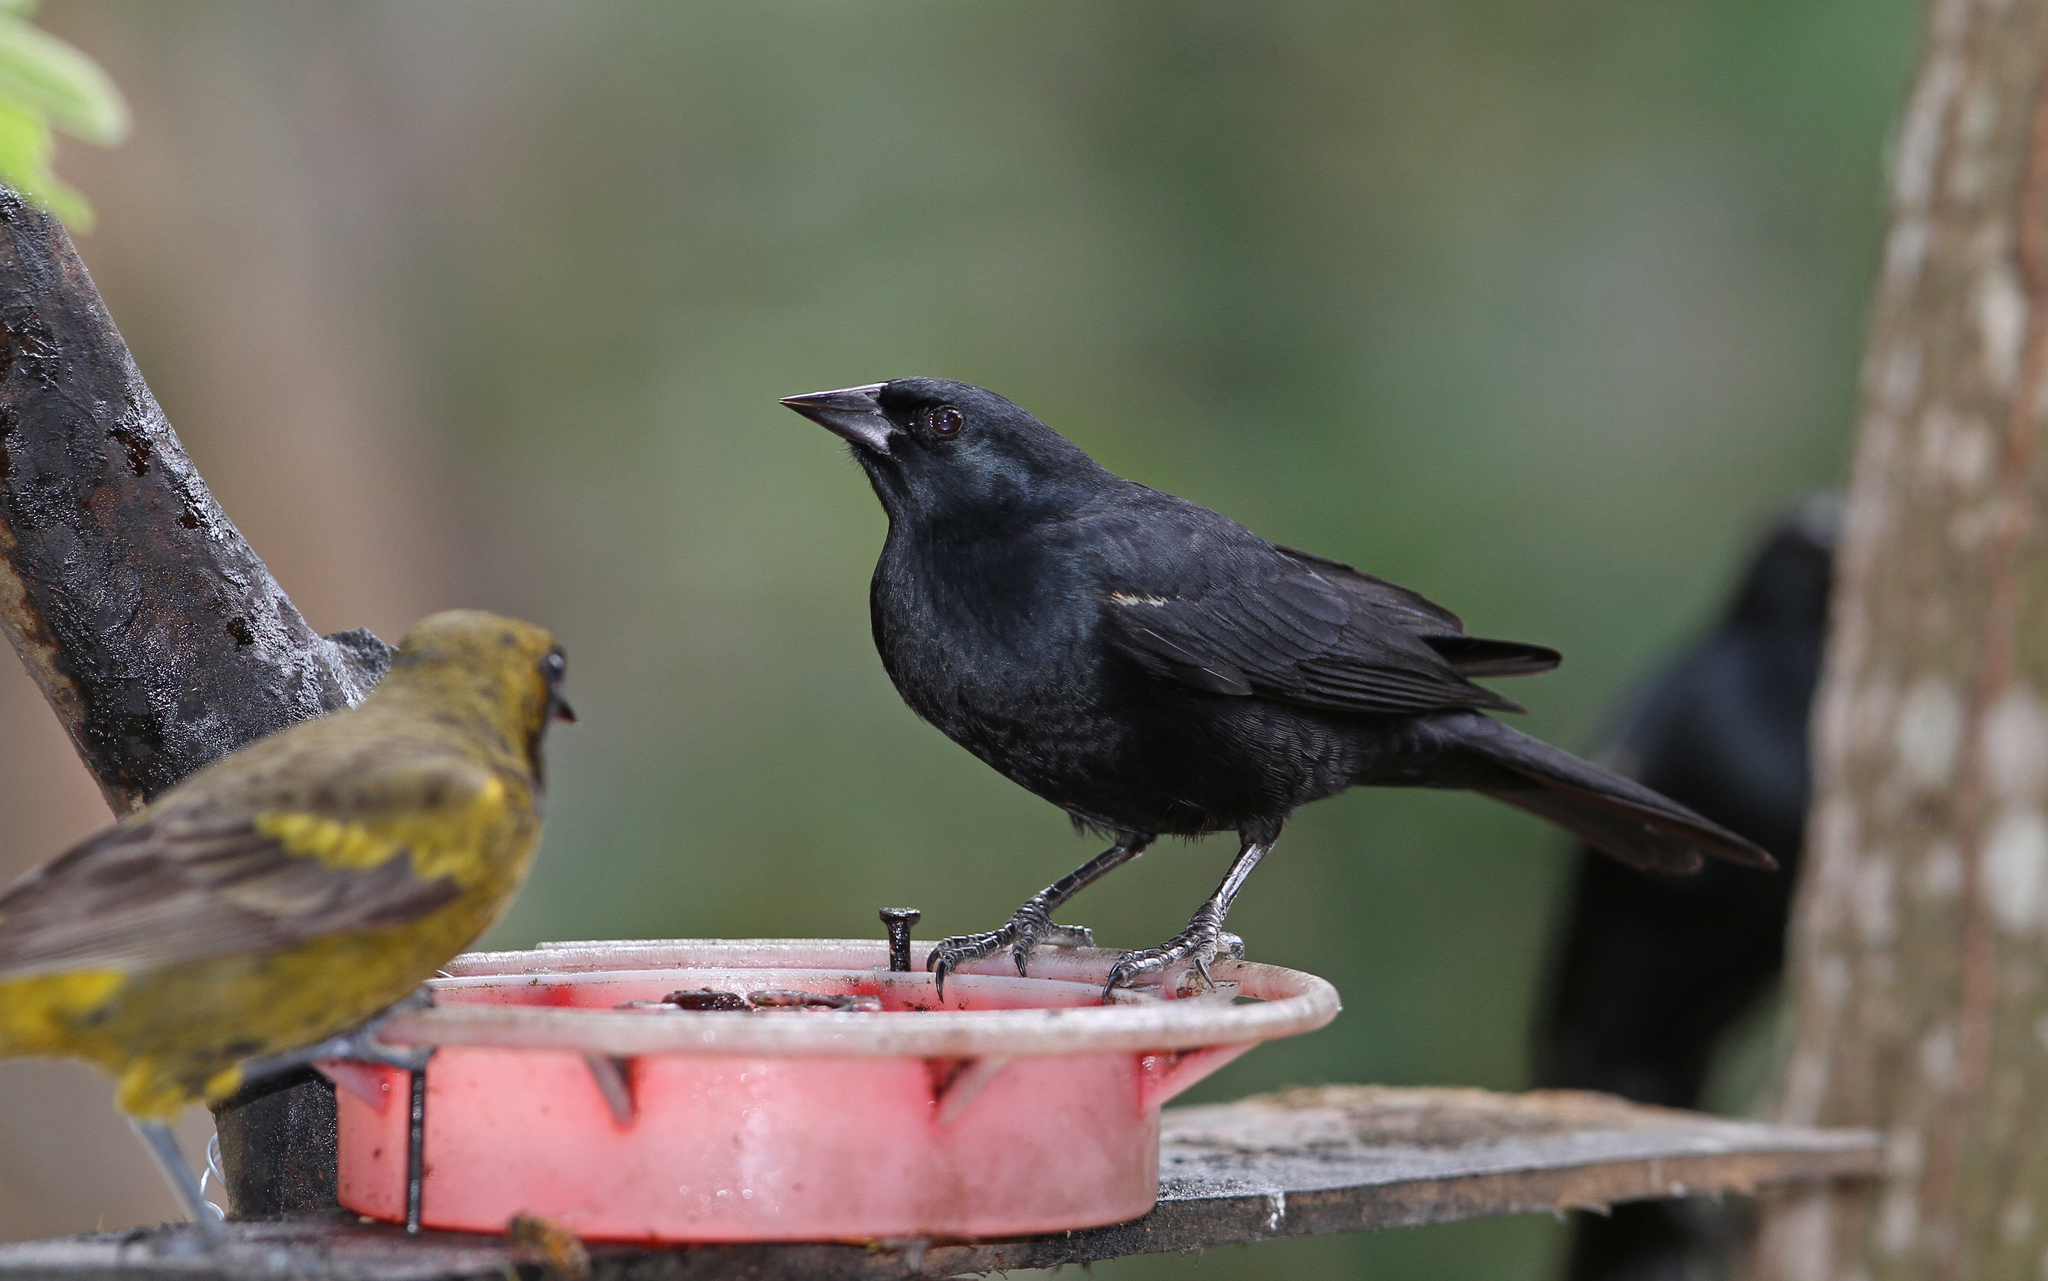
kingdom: Animalia
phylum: Chordata
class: Aves
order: Passeriformes
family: Icteridae
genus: Agelaius
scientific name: Agelaius humeralis
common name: Tawny-shouldered blackbird
